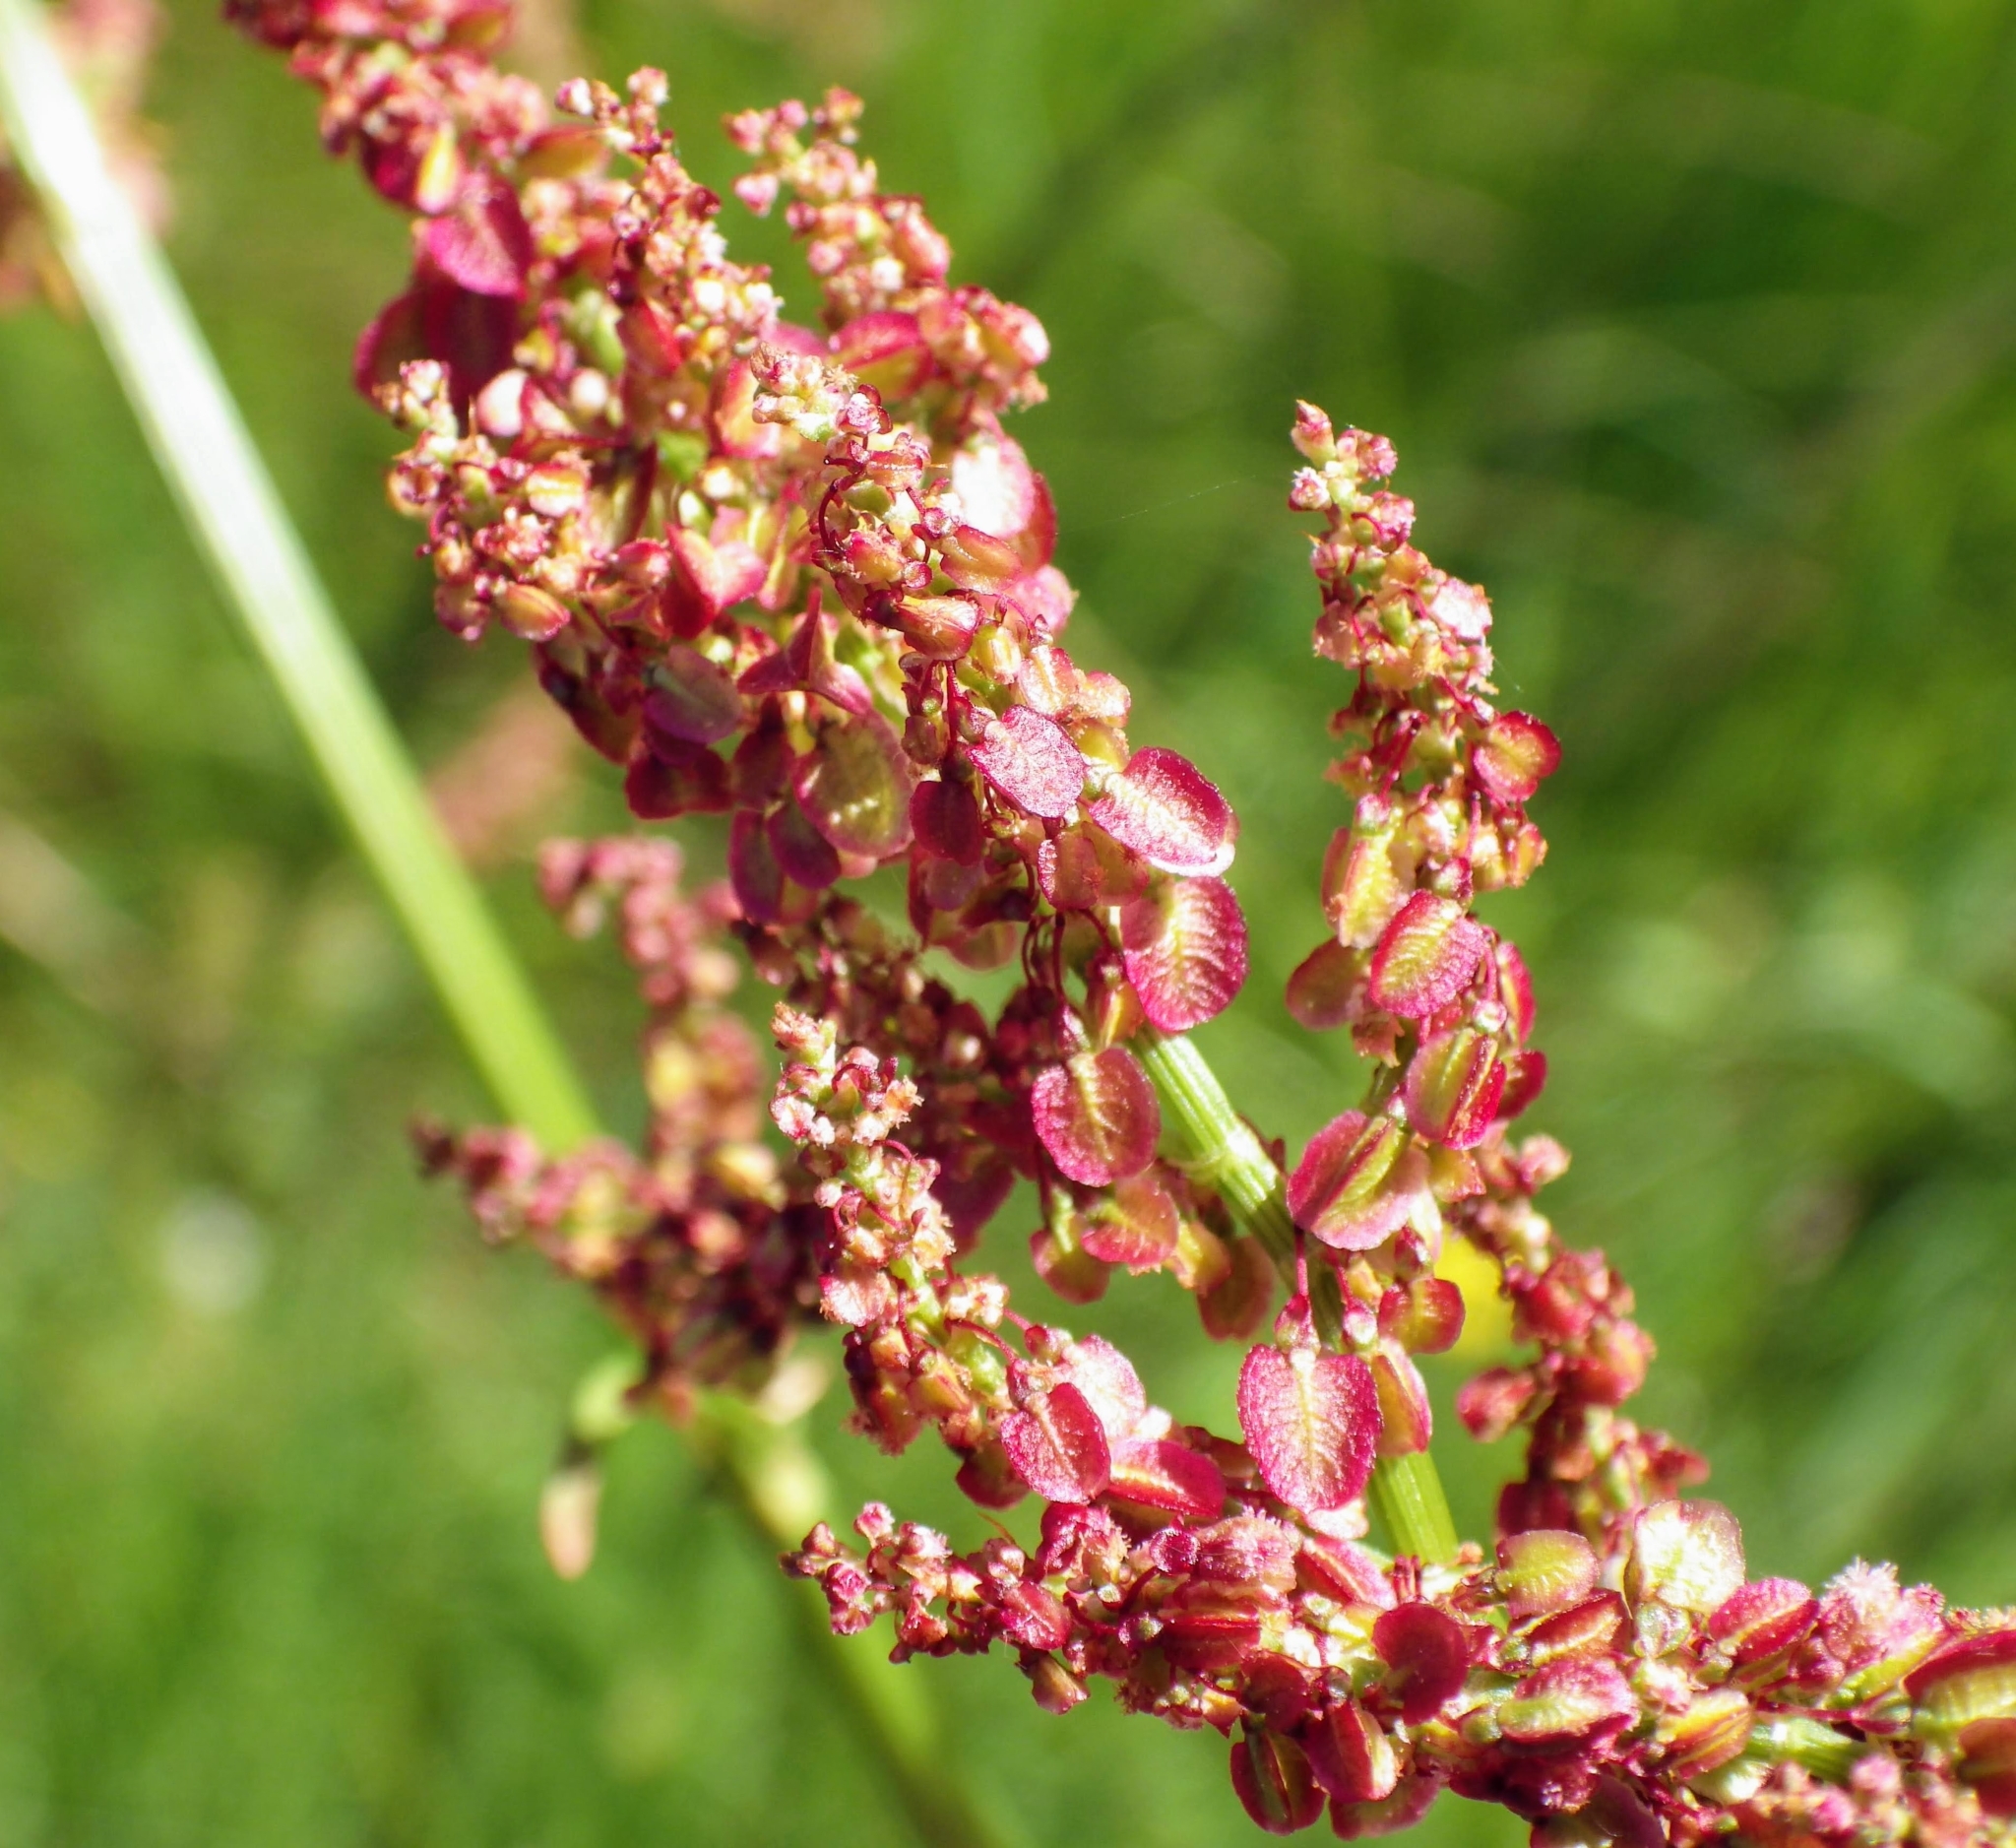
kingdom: Plantae
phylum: Tracheophyta
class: Magnoliopsida
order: Caryophyllales
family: Polygonaceae
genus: Rumex
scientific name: Rumex acetosa
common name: Garden sorrel
